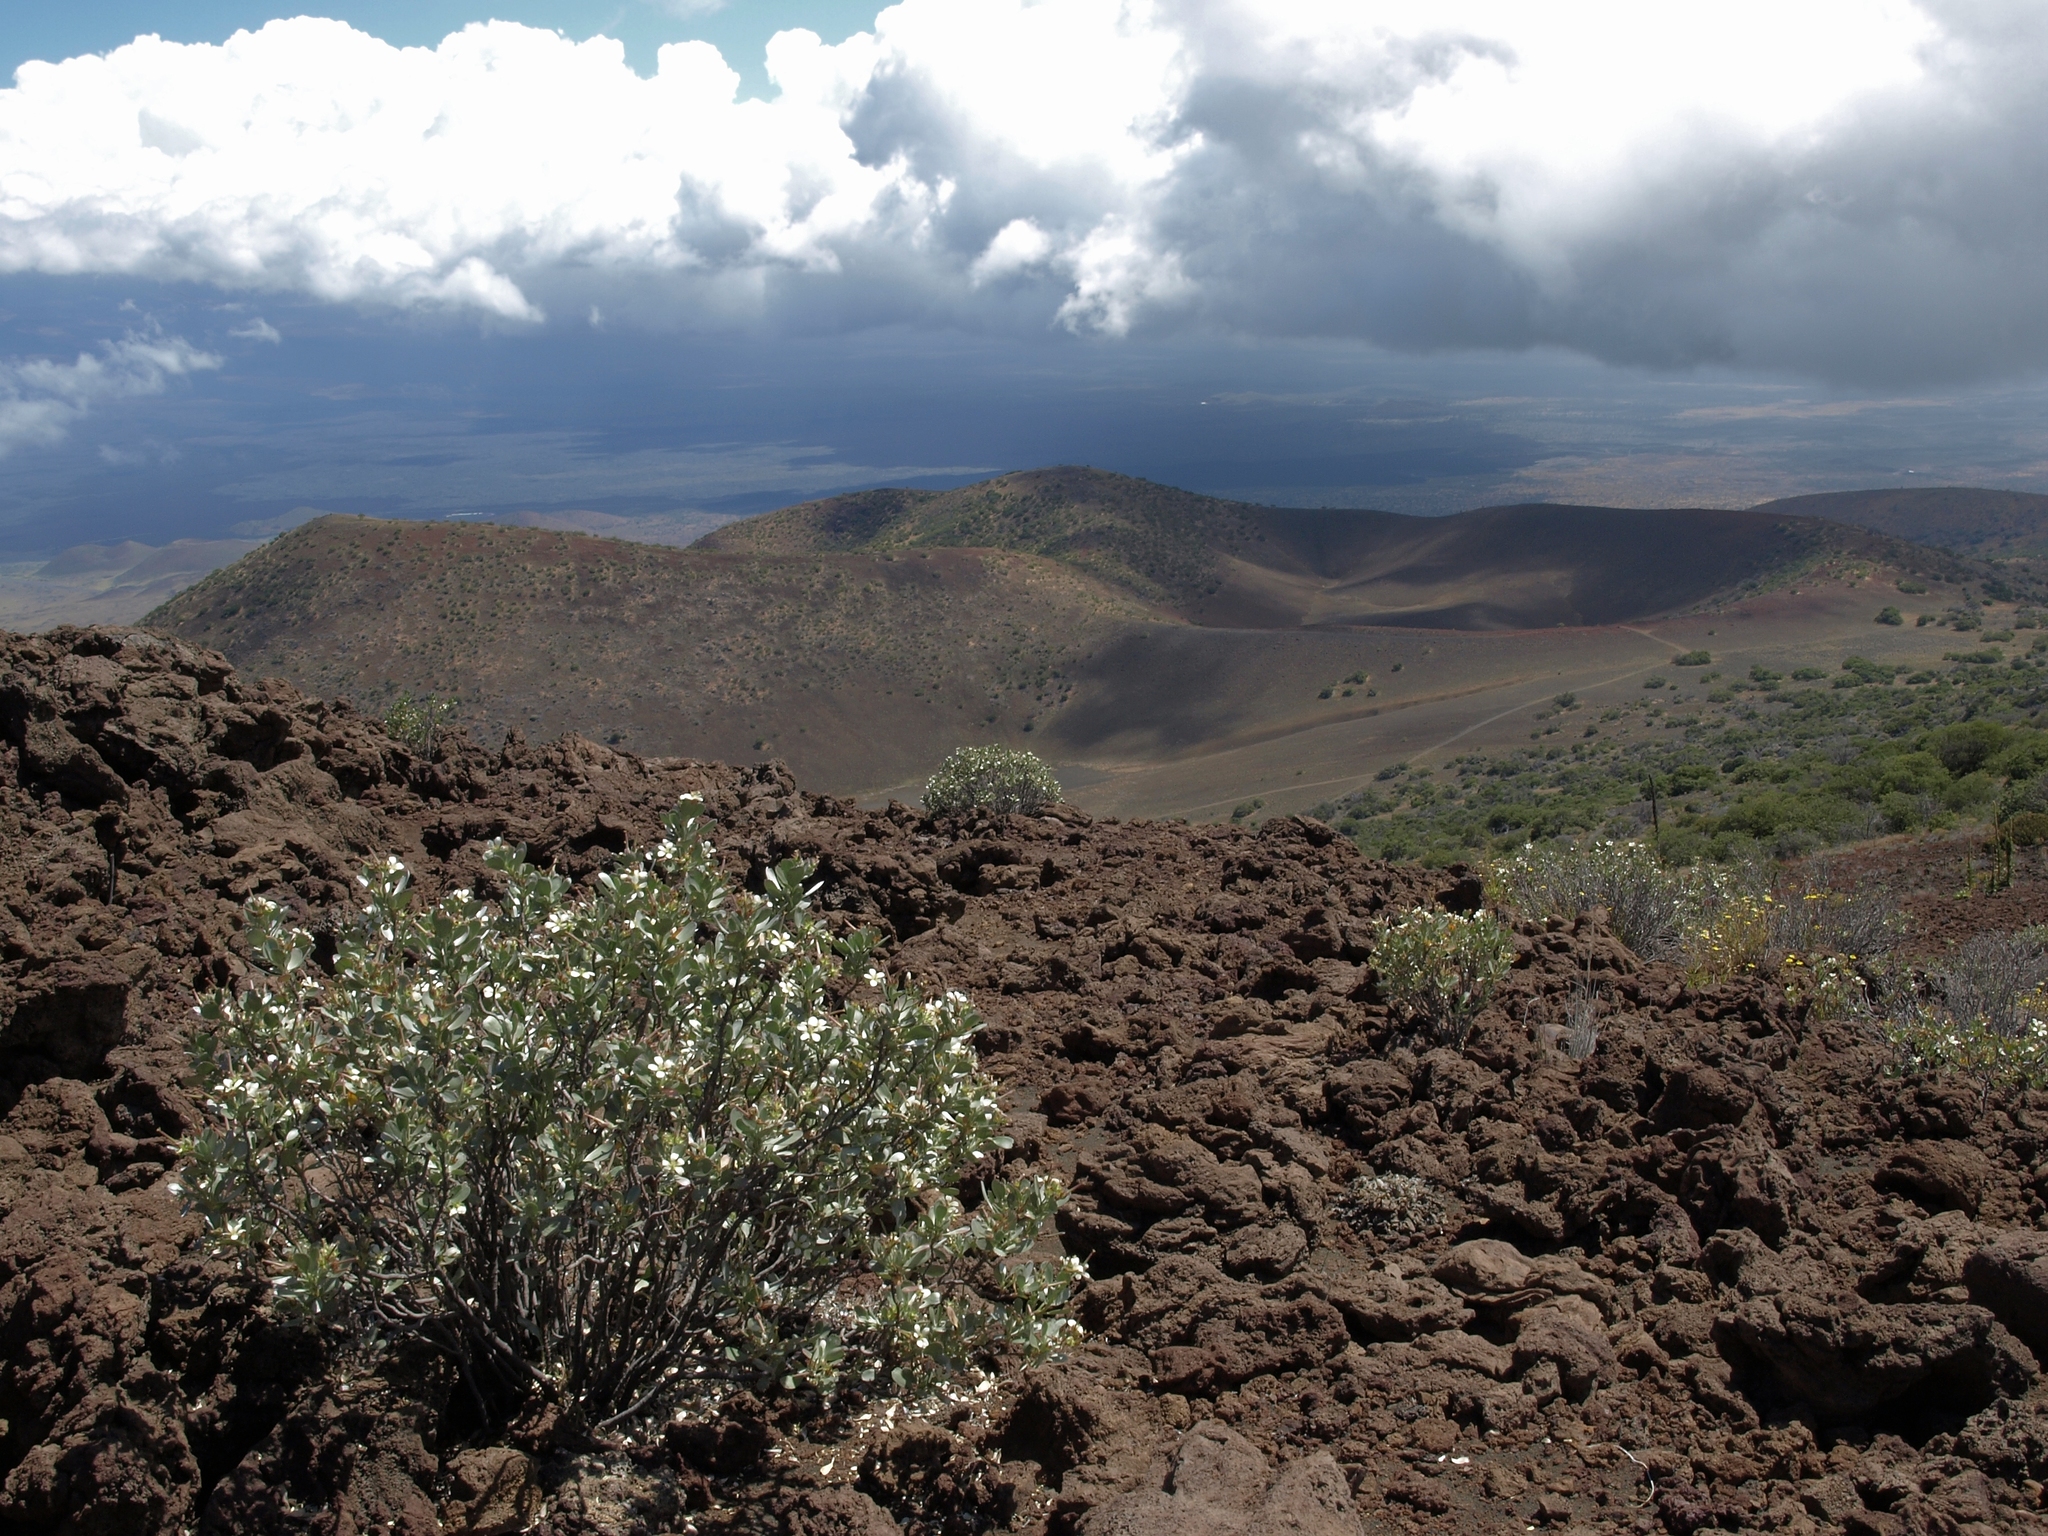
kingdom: Plantae
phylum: Tracheophyta
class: Magnoliopsida
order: Geraniales
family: Geraniaceae
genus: Geranium
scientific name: Geranium cuneatum
